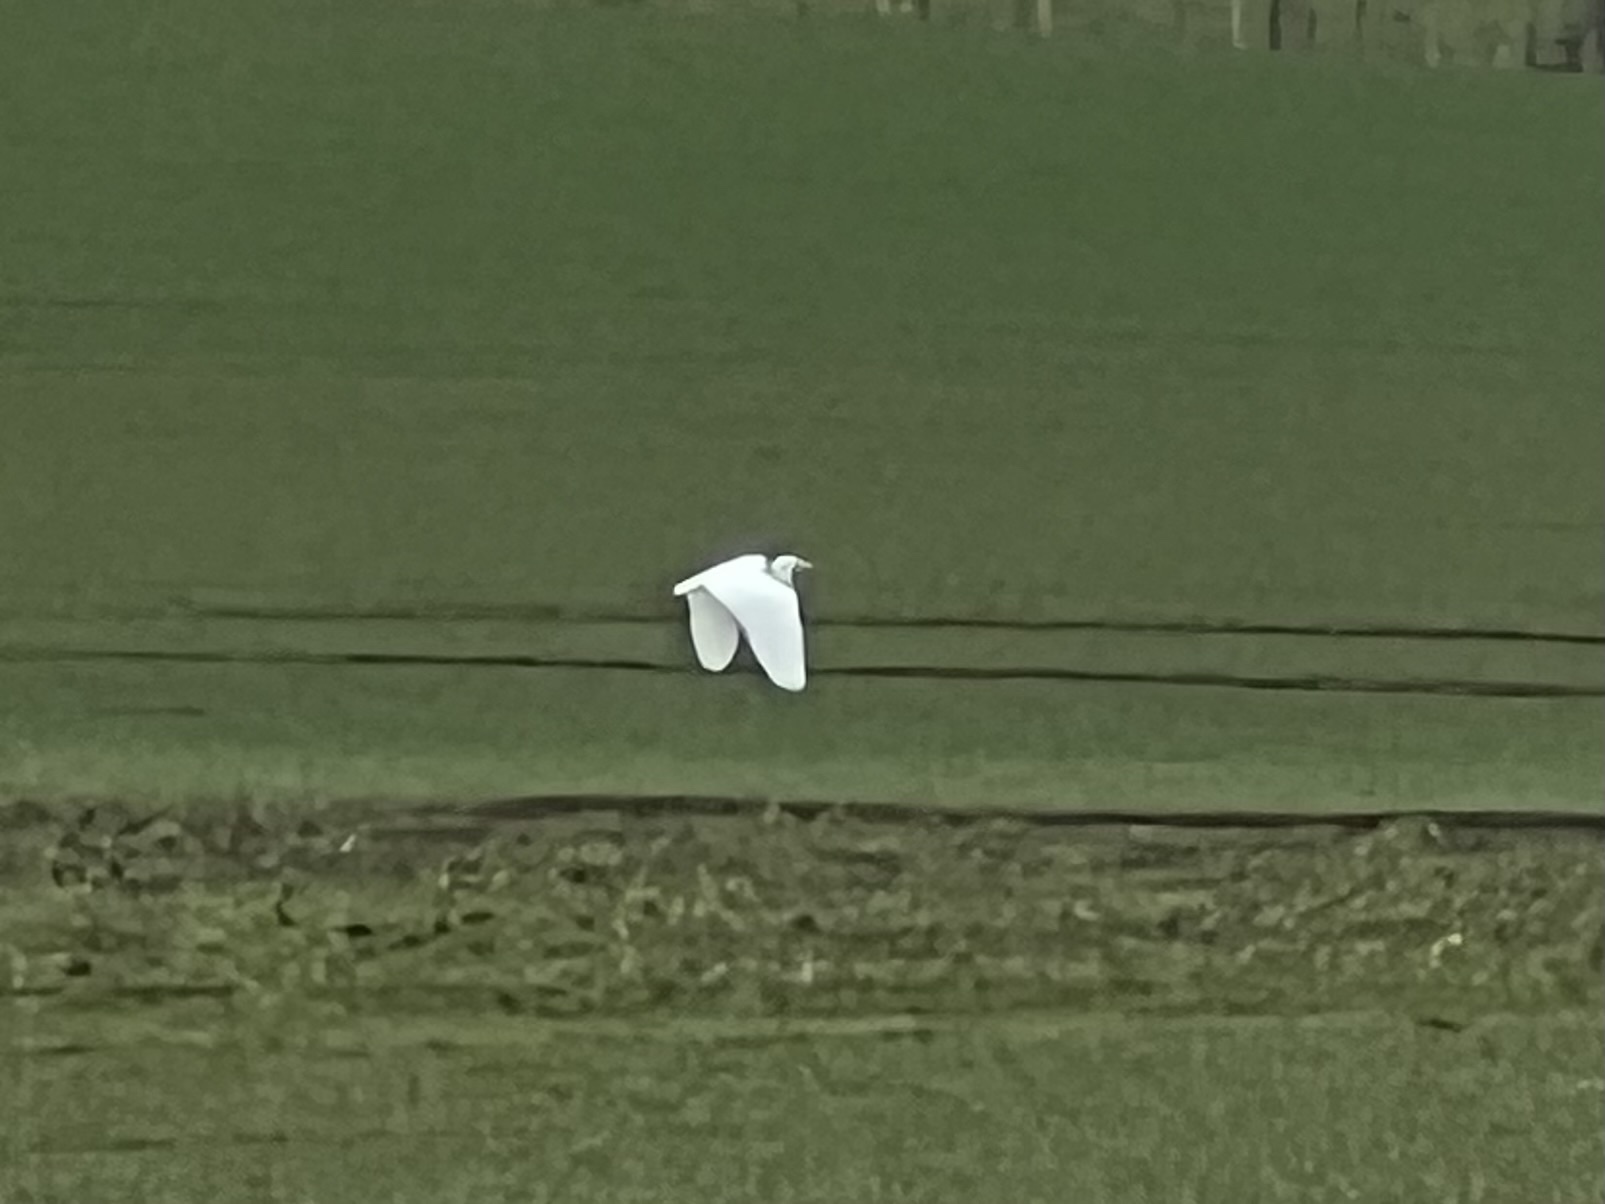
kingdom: Animalia
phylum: Chordata
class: Aves
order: Pelecaniformes
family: Ardeidae
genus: Ardea
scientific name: Ardea alba
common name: Great egret
